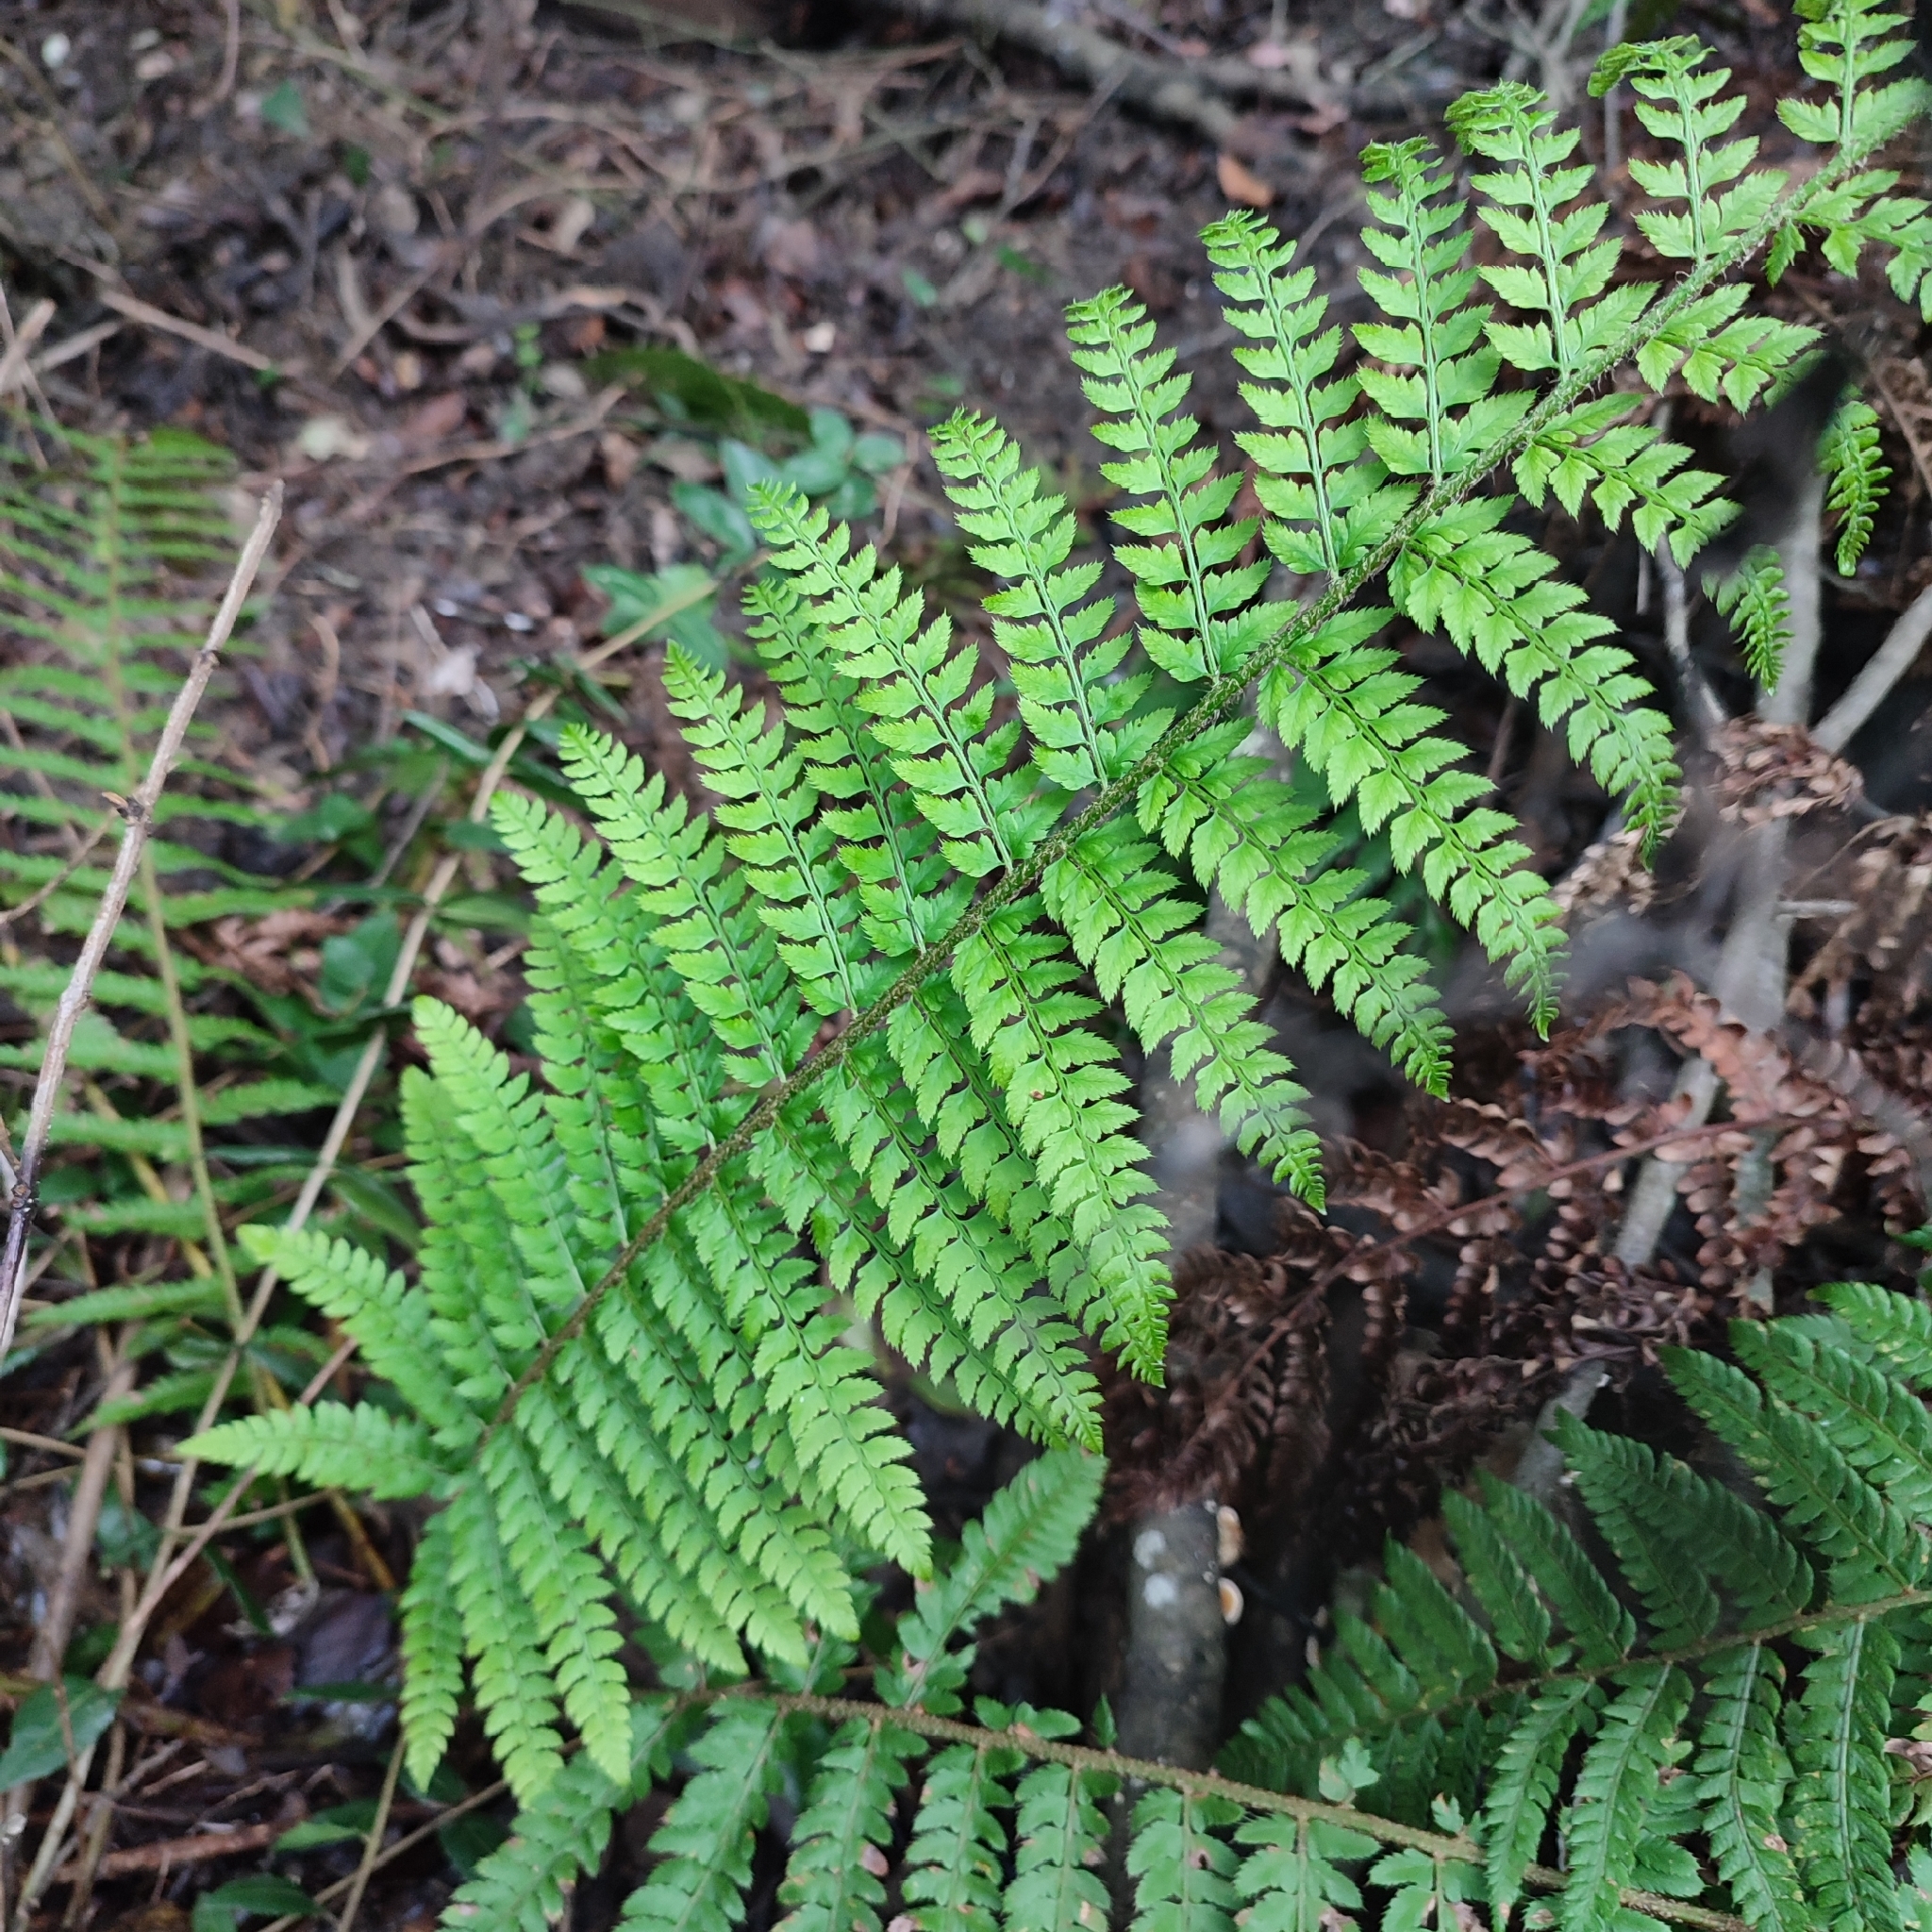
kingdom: Plantae
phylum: Tracheophyta
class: Polypodiopsida
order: Polypodiales
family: Dryopteridaceae
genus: Polystichum
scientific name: Polystichum setiferum
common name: Soft shield-fern
